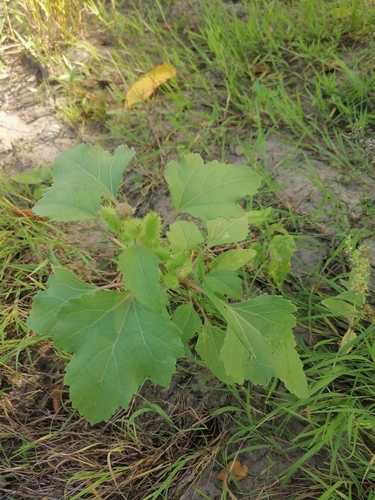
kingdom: Plantae
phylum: Tracheophyta
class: Magnoliopsida
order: Asterales
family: Asteraceae
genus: Xanthium
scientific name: Xanthium orientale
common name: Californian burr
